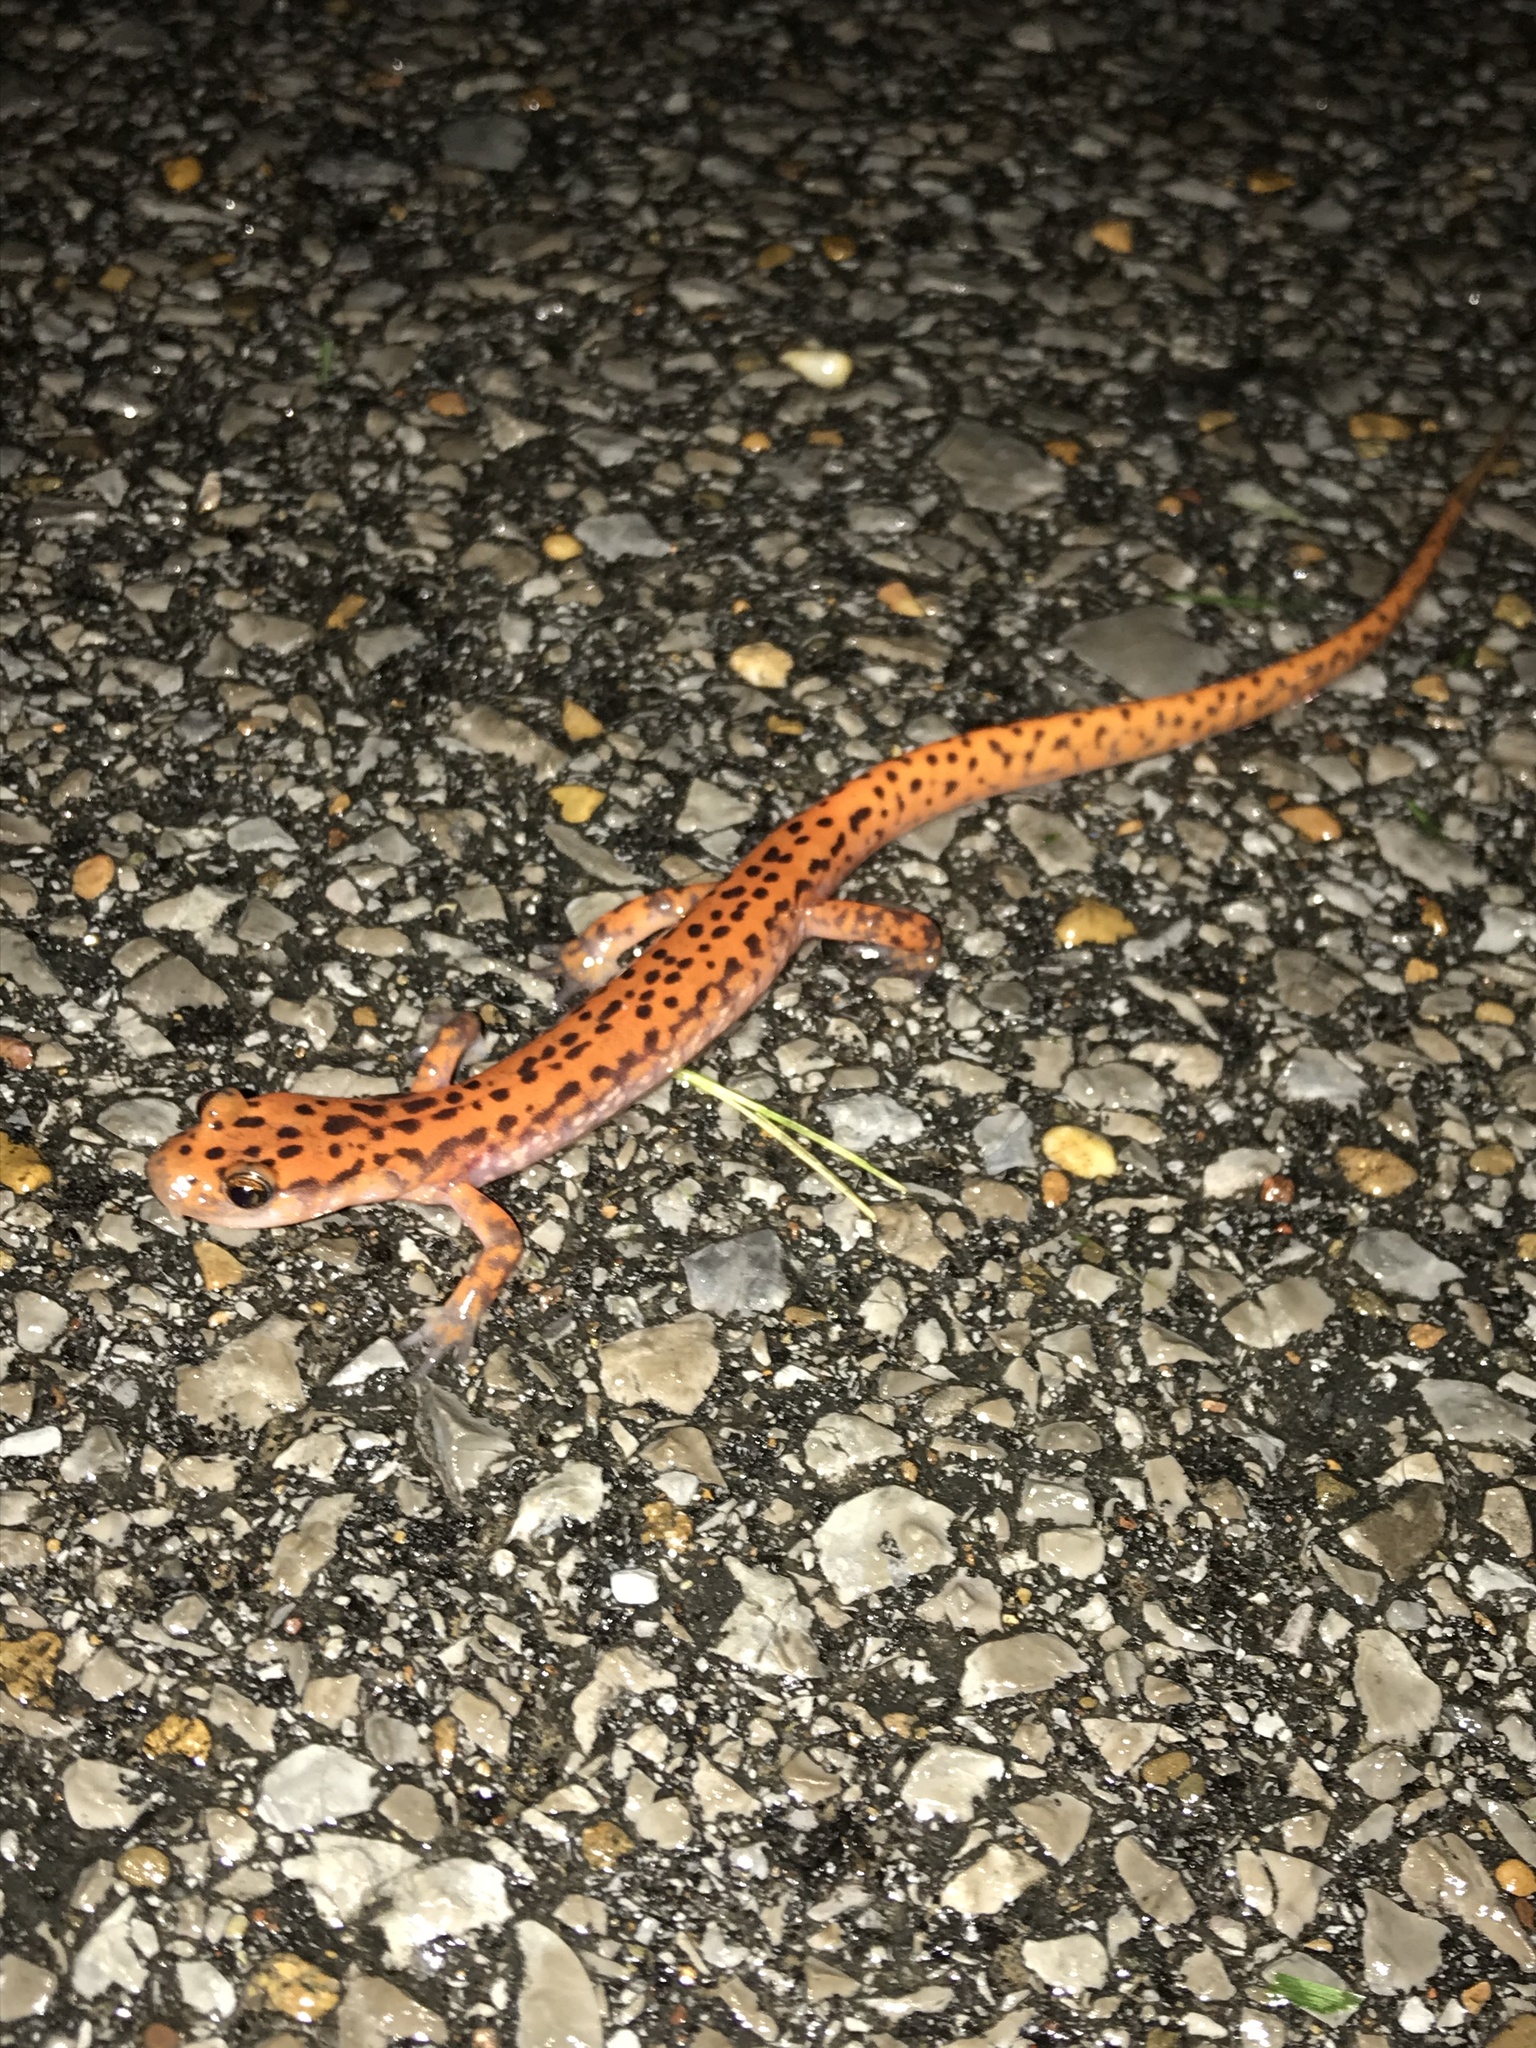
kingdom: Animalia
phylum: Chordata
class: Amphibia
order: Caudata
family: Plethodontidae
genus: Eurycea
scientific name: Eurycea lucifuga
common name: Cave salamander
